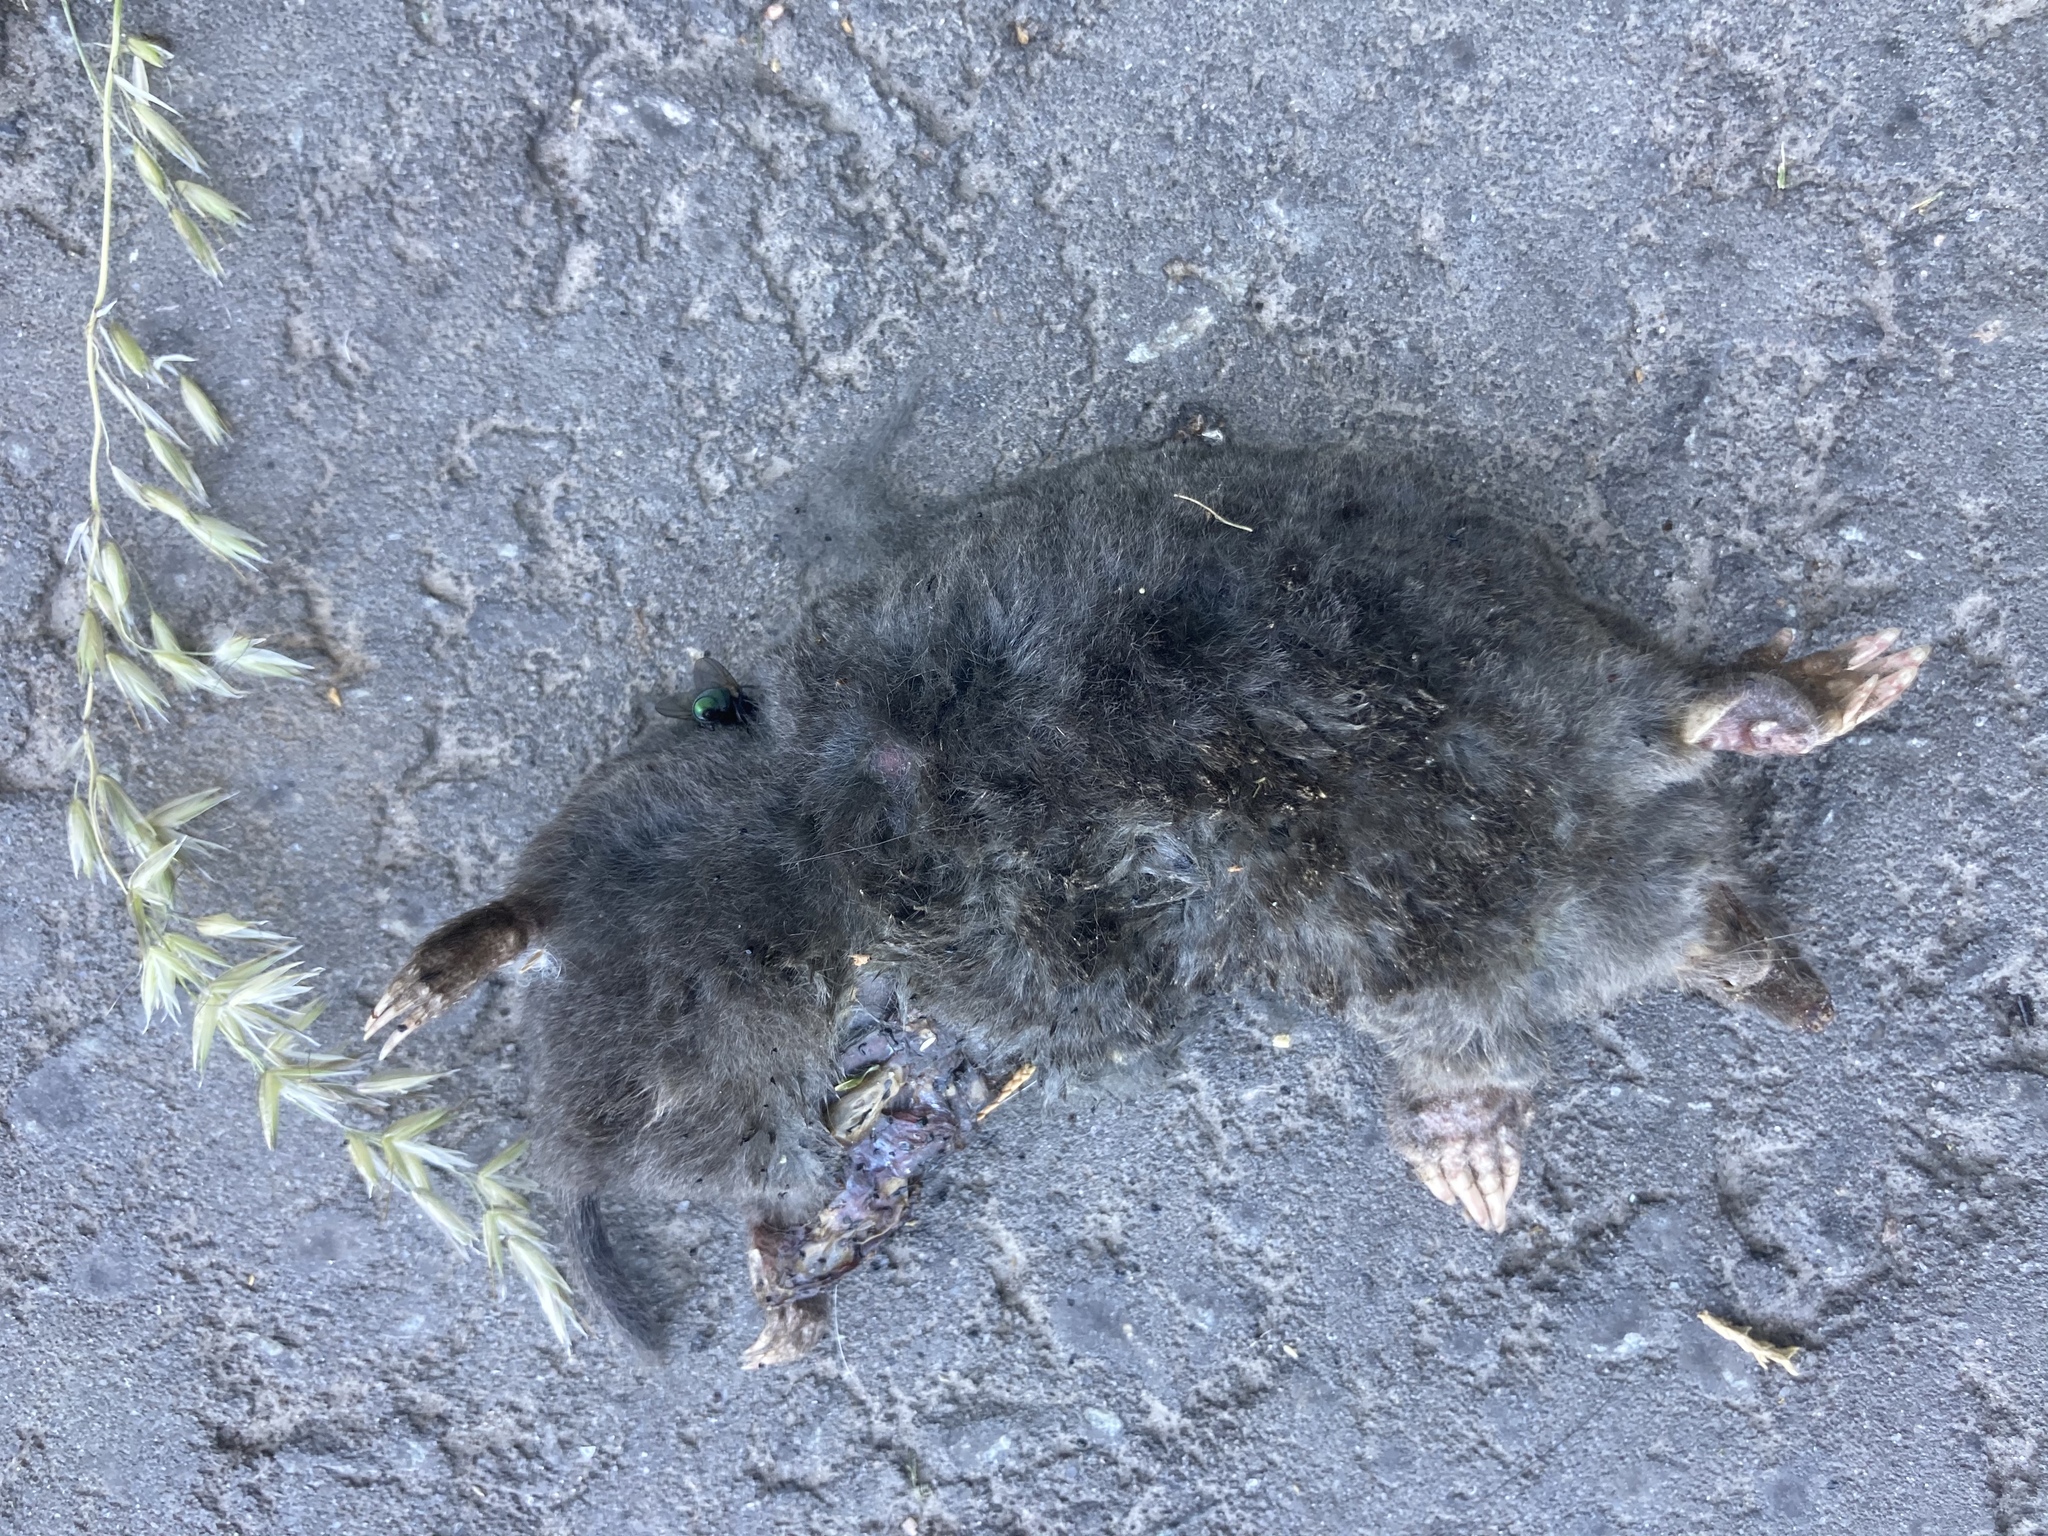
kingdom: Animalia
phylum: Chordata
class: Mammalia
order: Soricomorpha
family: Talpidae
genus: Talpa
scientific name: Talpa europaea
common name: European mole
